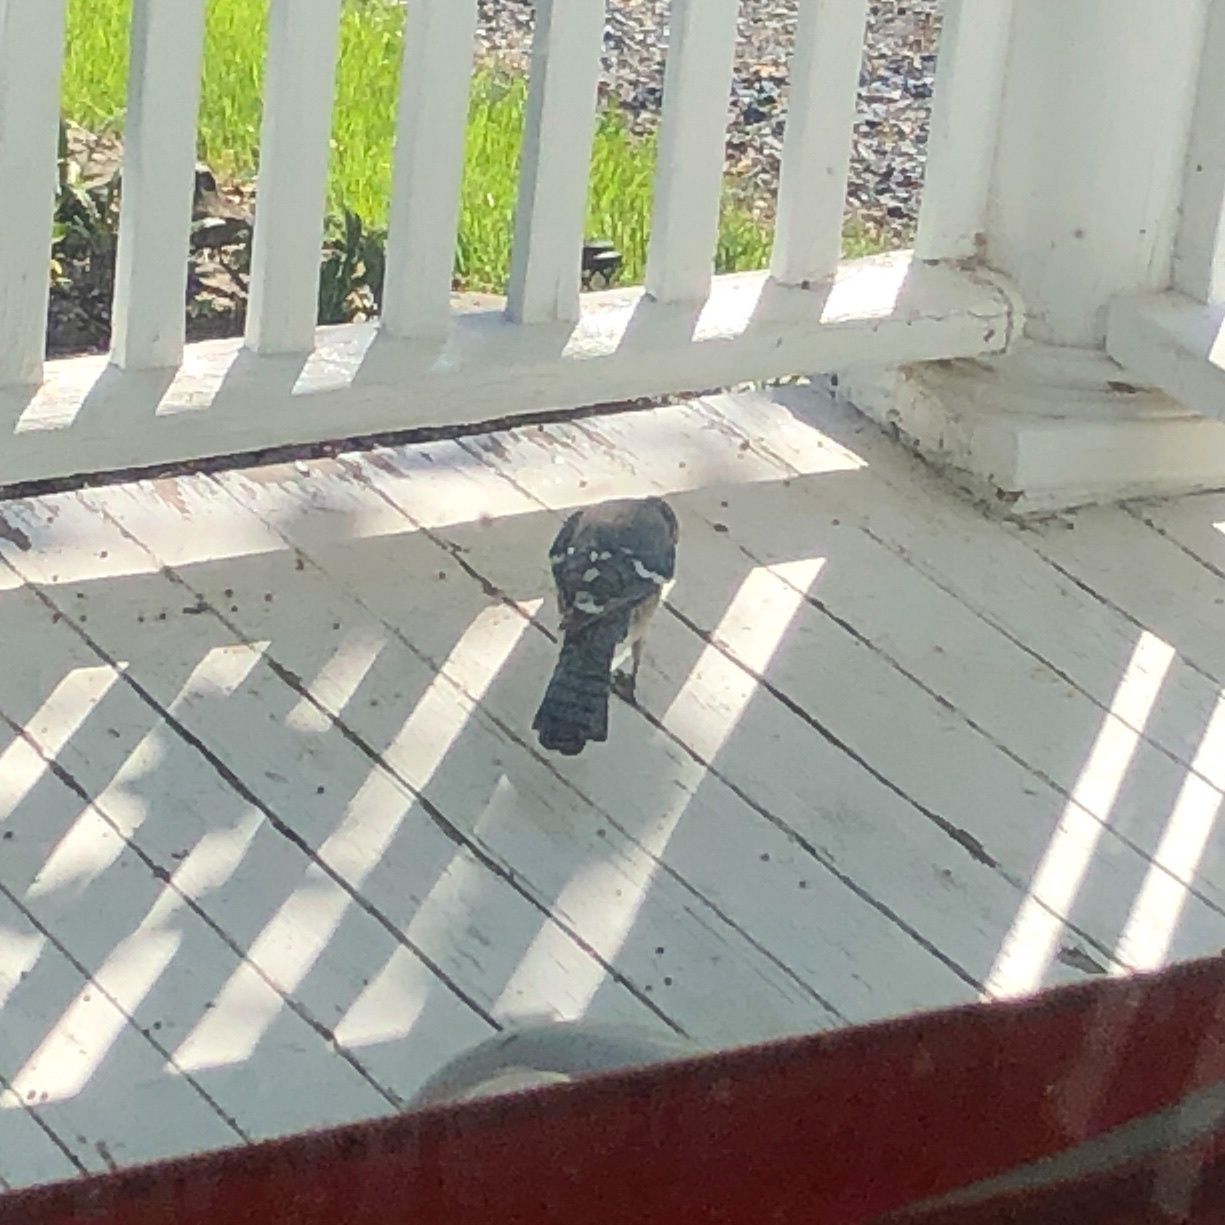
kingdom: Animalia
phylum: Chordata
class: Aves
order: Passeriformes
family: Corvidae
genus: Cyanocitta
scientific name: Cyanocitta cristata
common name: Blue jay
